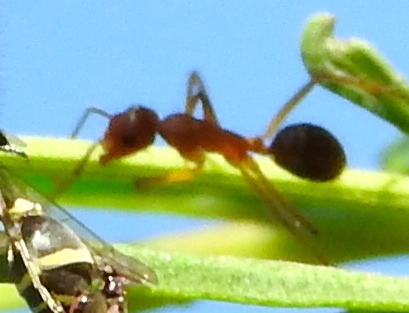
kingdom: Animalia
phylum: Arthropoda
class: Insecta
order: Hymenoptera
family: Formicidae
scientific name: Formicidae
